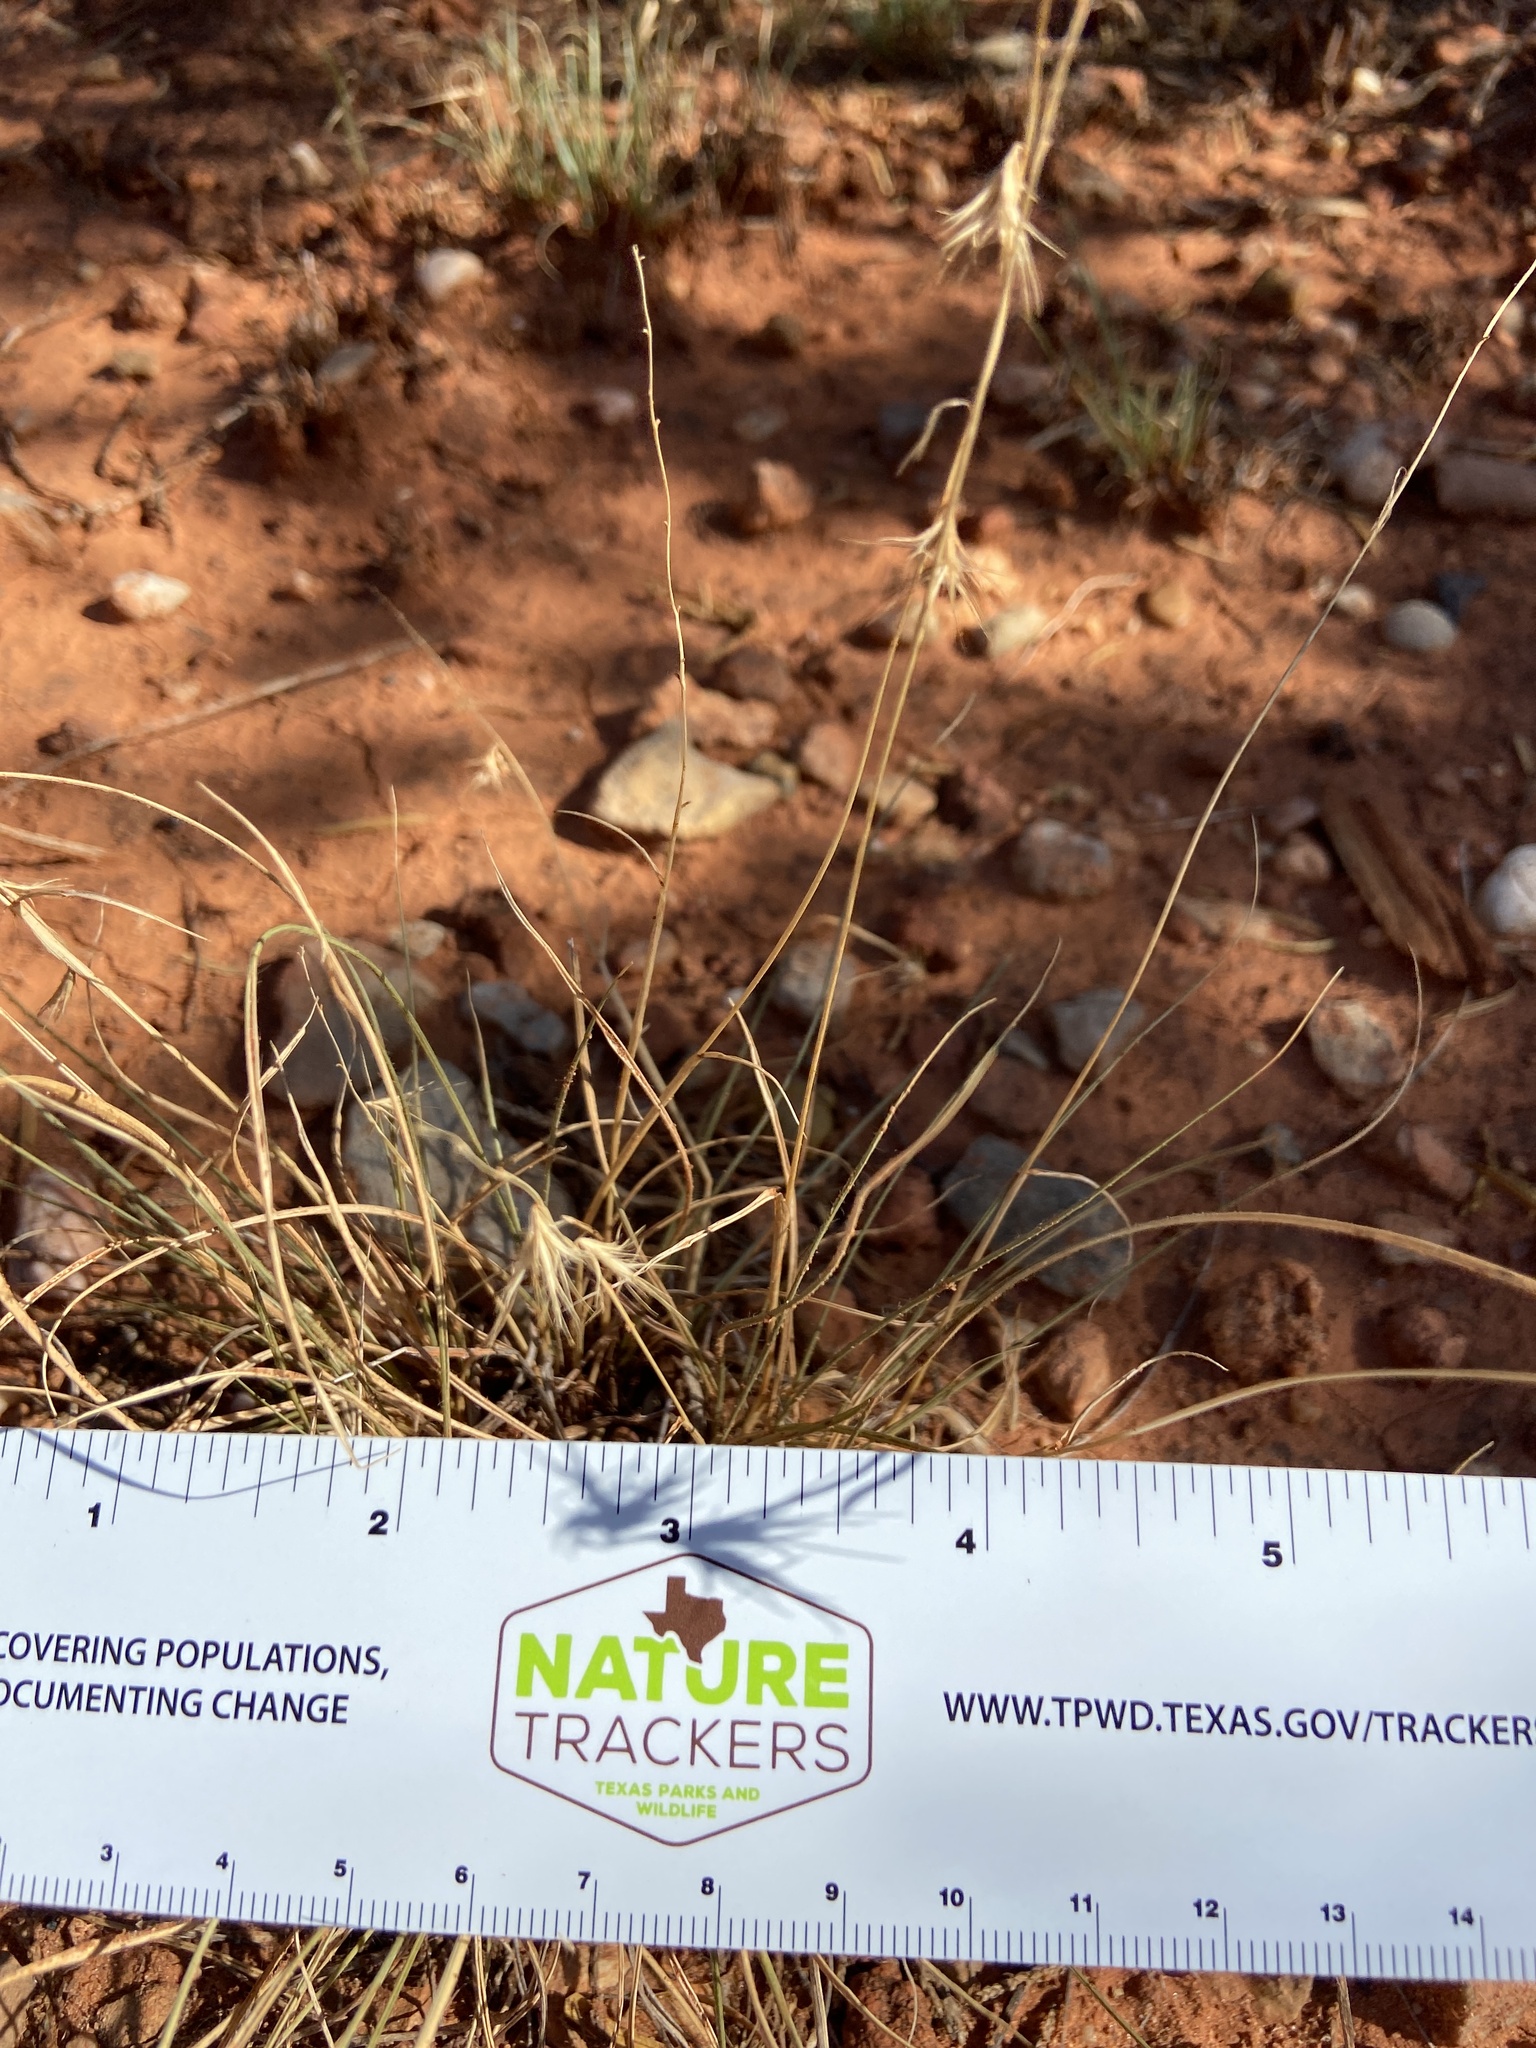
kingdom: Plantae
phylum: Tracheophyta
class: Liliopsida
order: Poales
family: Poaceae
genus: Bouteloua
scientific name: Bouteloua rigidiseta
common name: Texas grama
